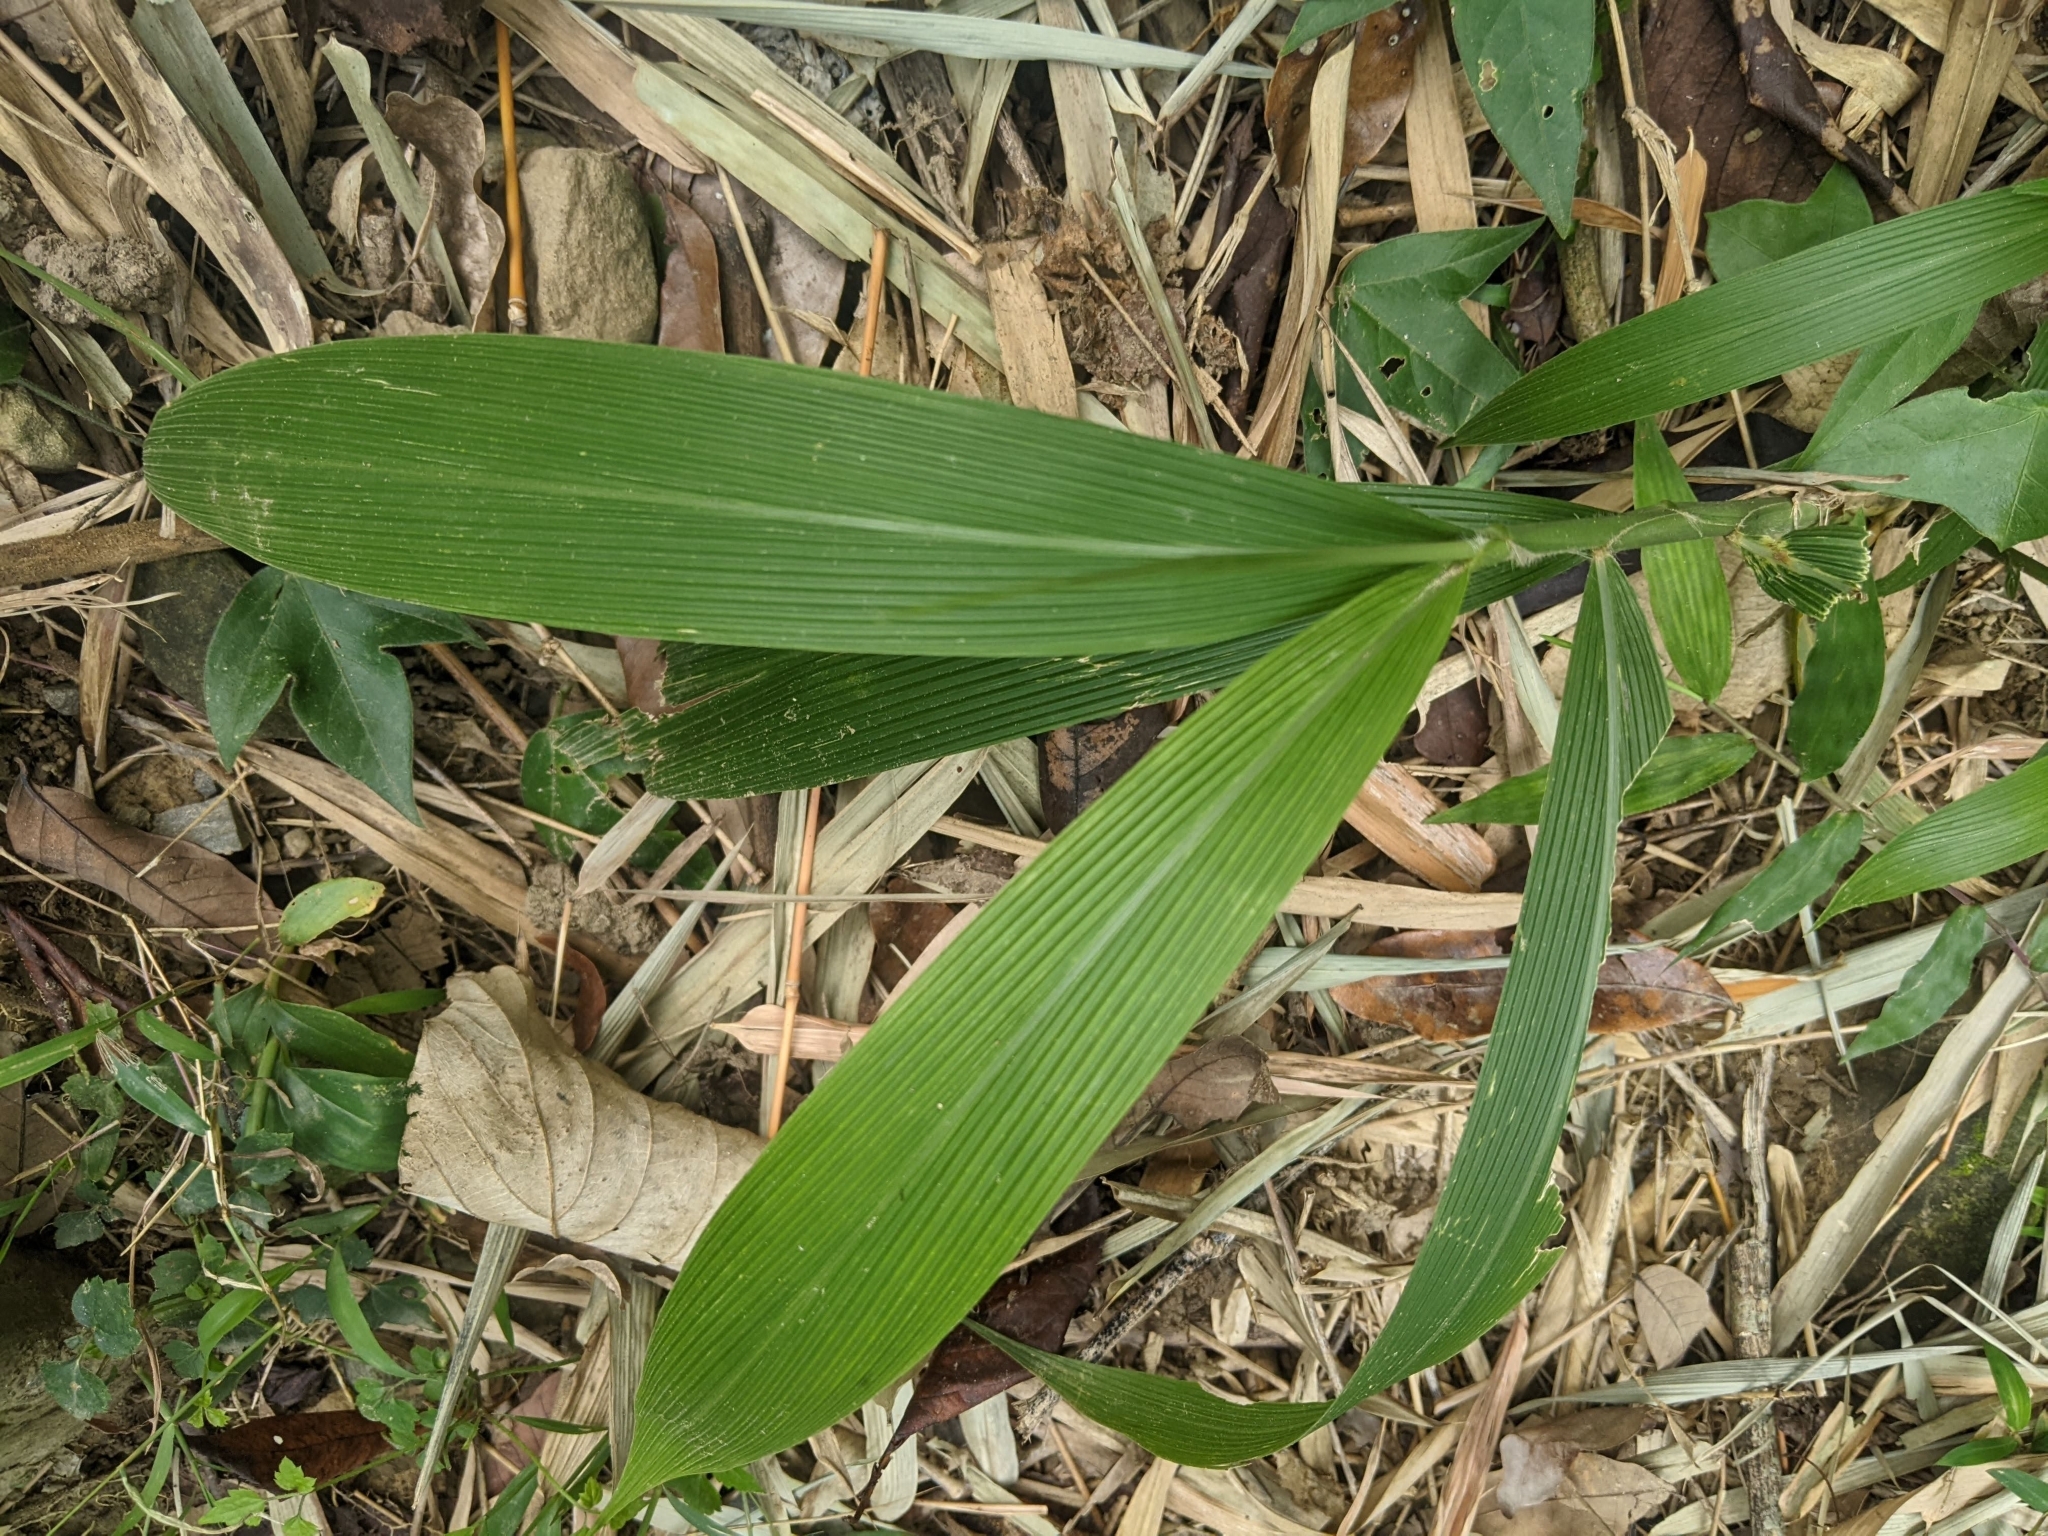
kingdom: Plantae
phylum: Tracheophyta
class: Liliopsida
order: Poales
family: Poaceae
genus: Setaria
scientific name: Setaria palmifolia
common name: Broadleaved bristlegrass
